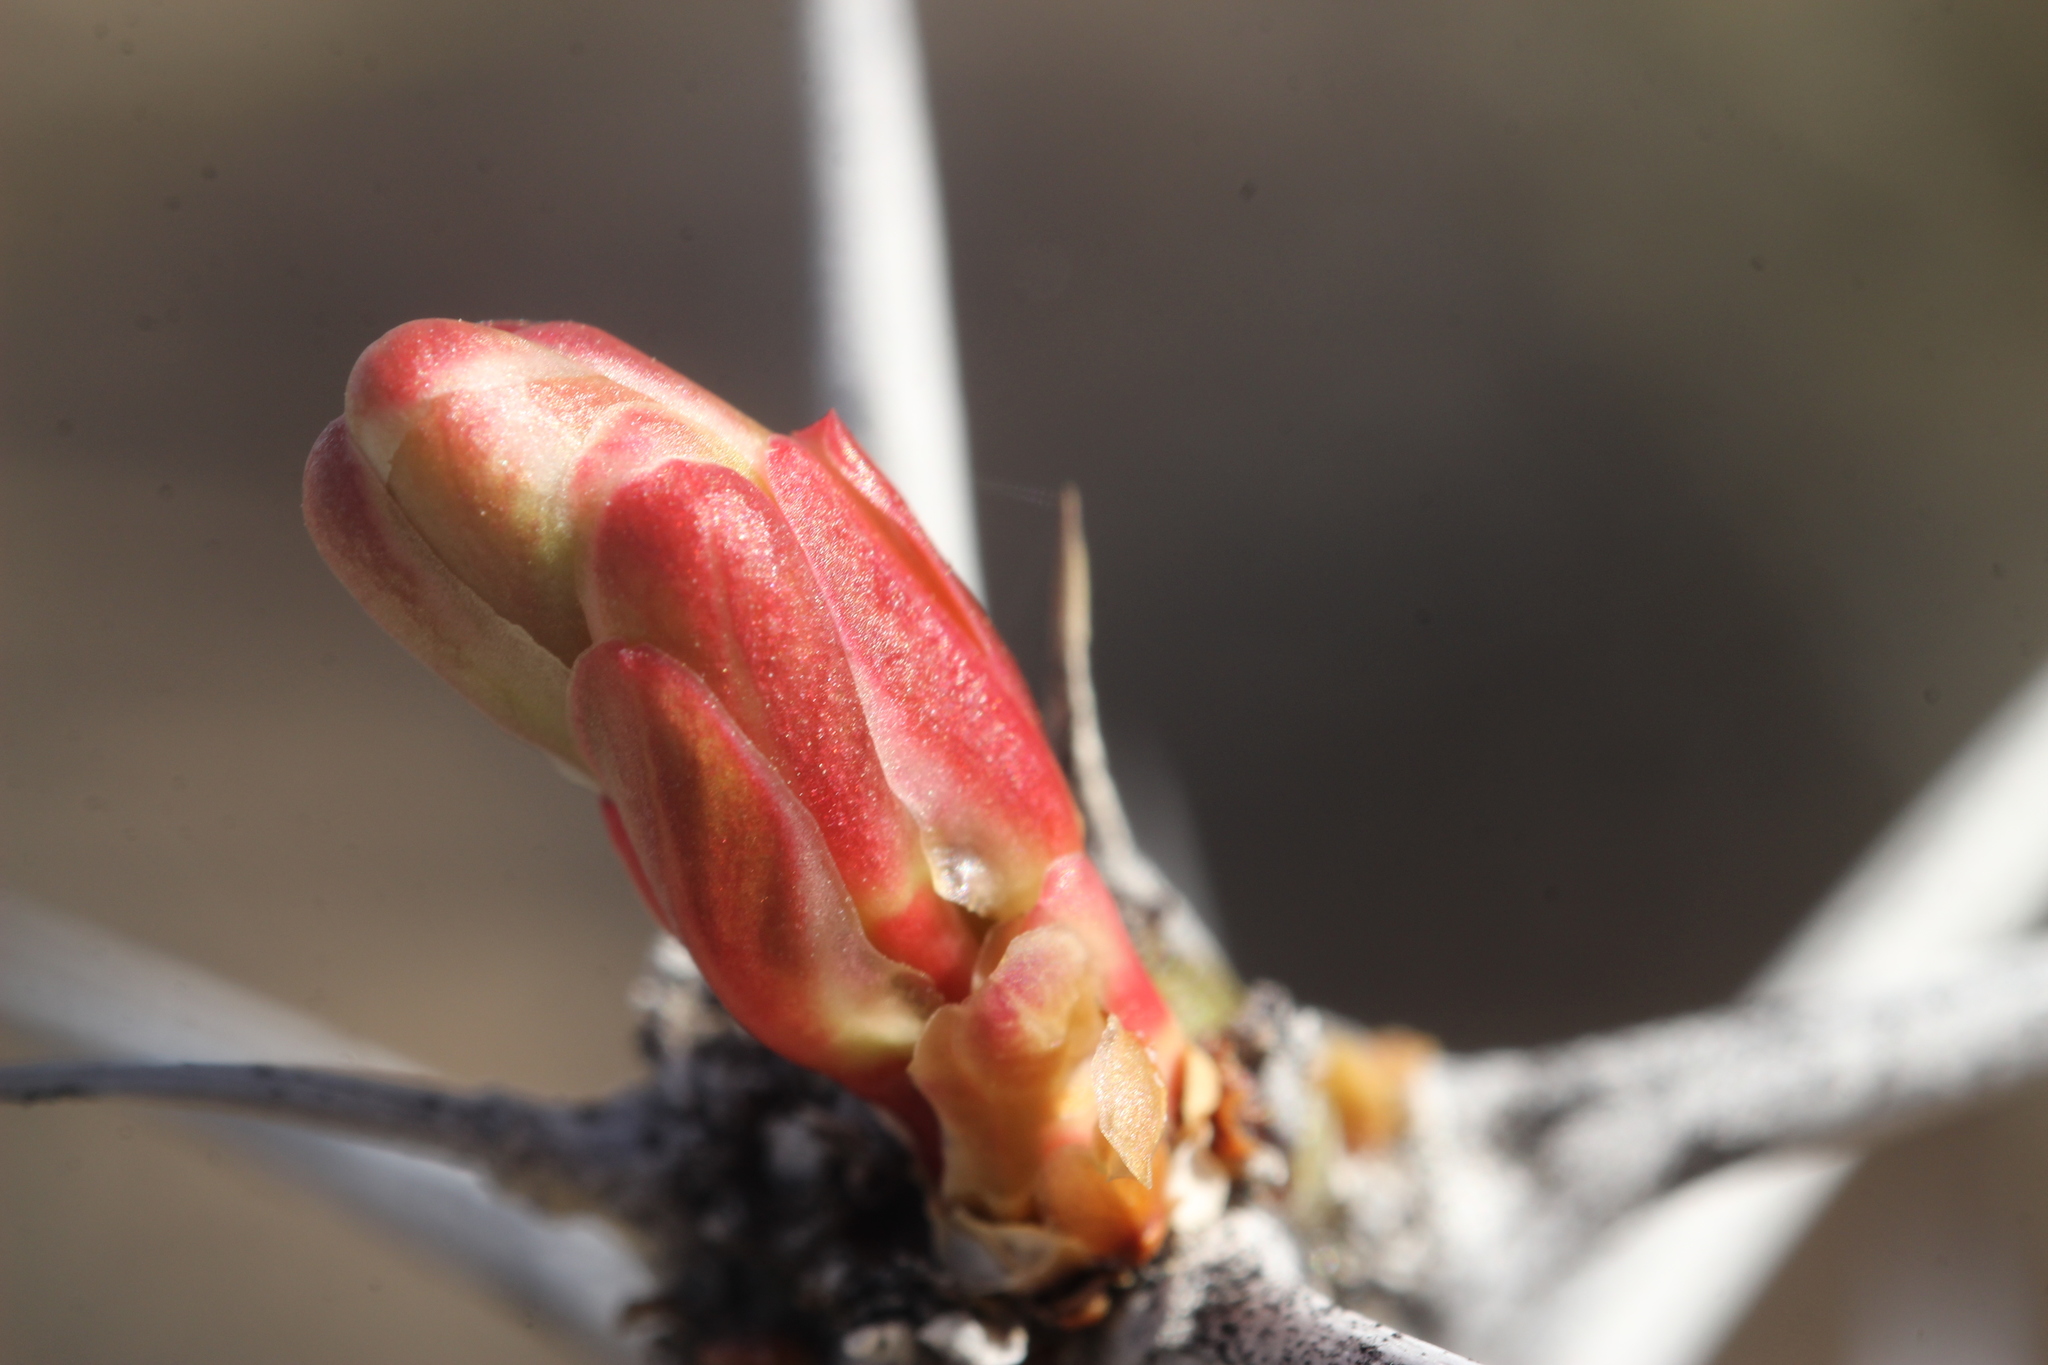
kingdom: Plantae
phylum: Tracheophyta
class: Magnoliopsida
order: Ericales
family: Fouquieriaceae
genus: Fouquieria
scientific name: Fouquieria splendens
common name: Vine-cactus
